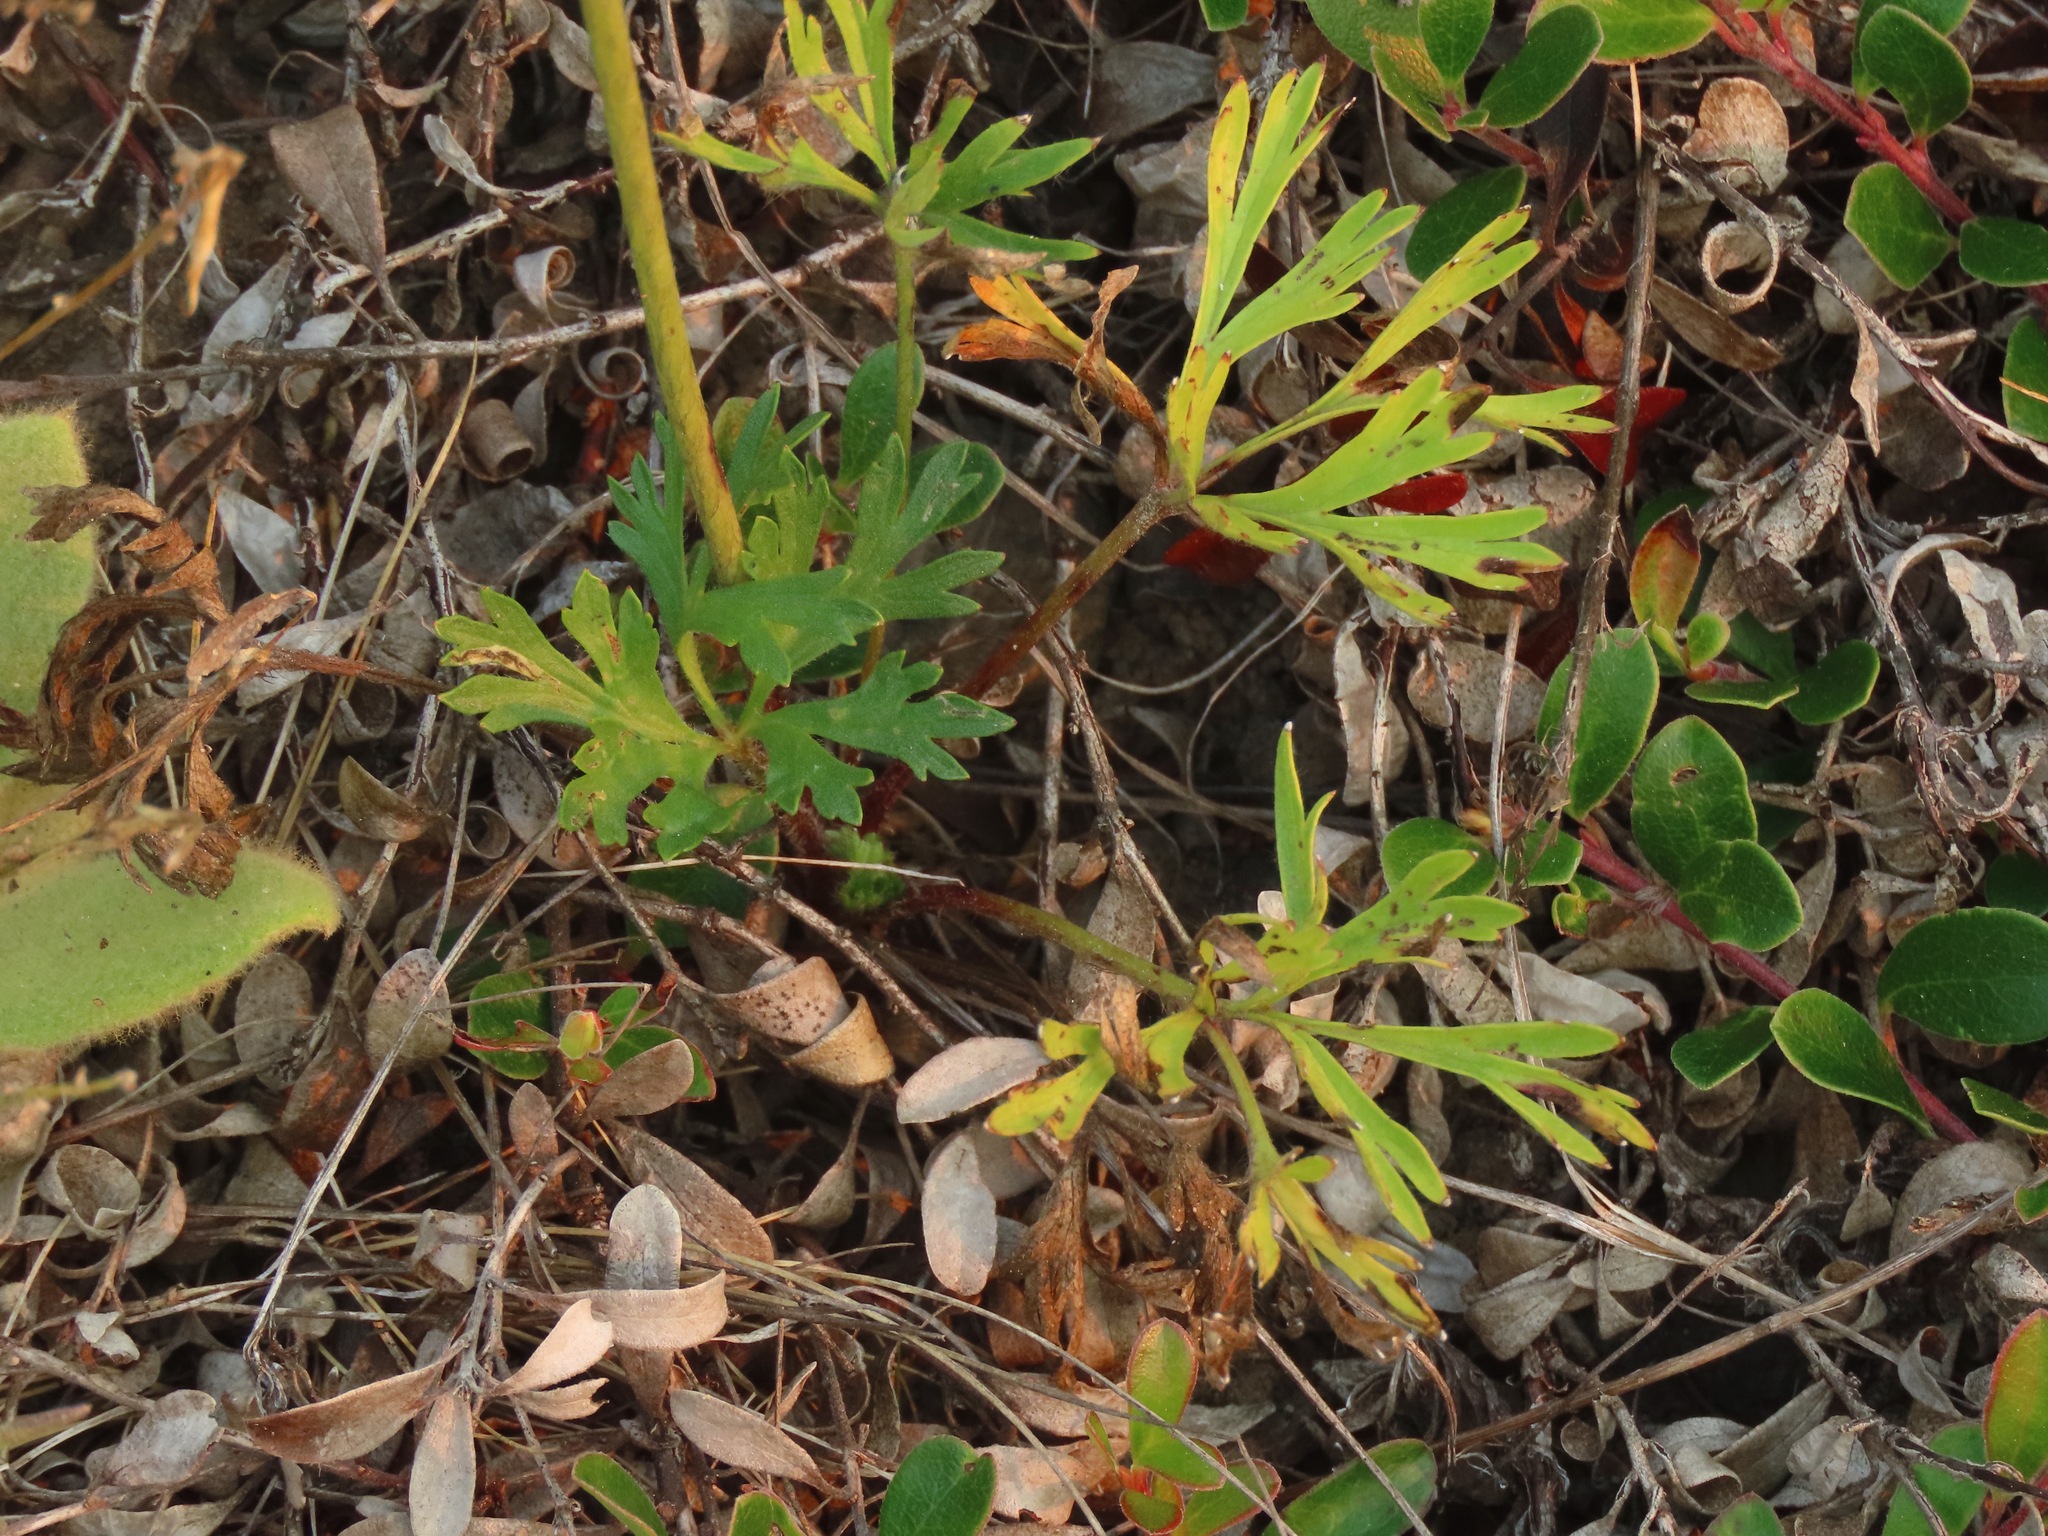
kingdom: Plantae
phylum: Tracheophyta
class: Magnoliopsida
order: Ranunculales
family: Ranunculaceae
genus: Anemone
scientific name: Anemone multifida
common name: Bird's-foot anemone
